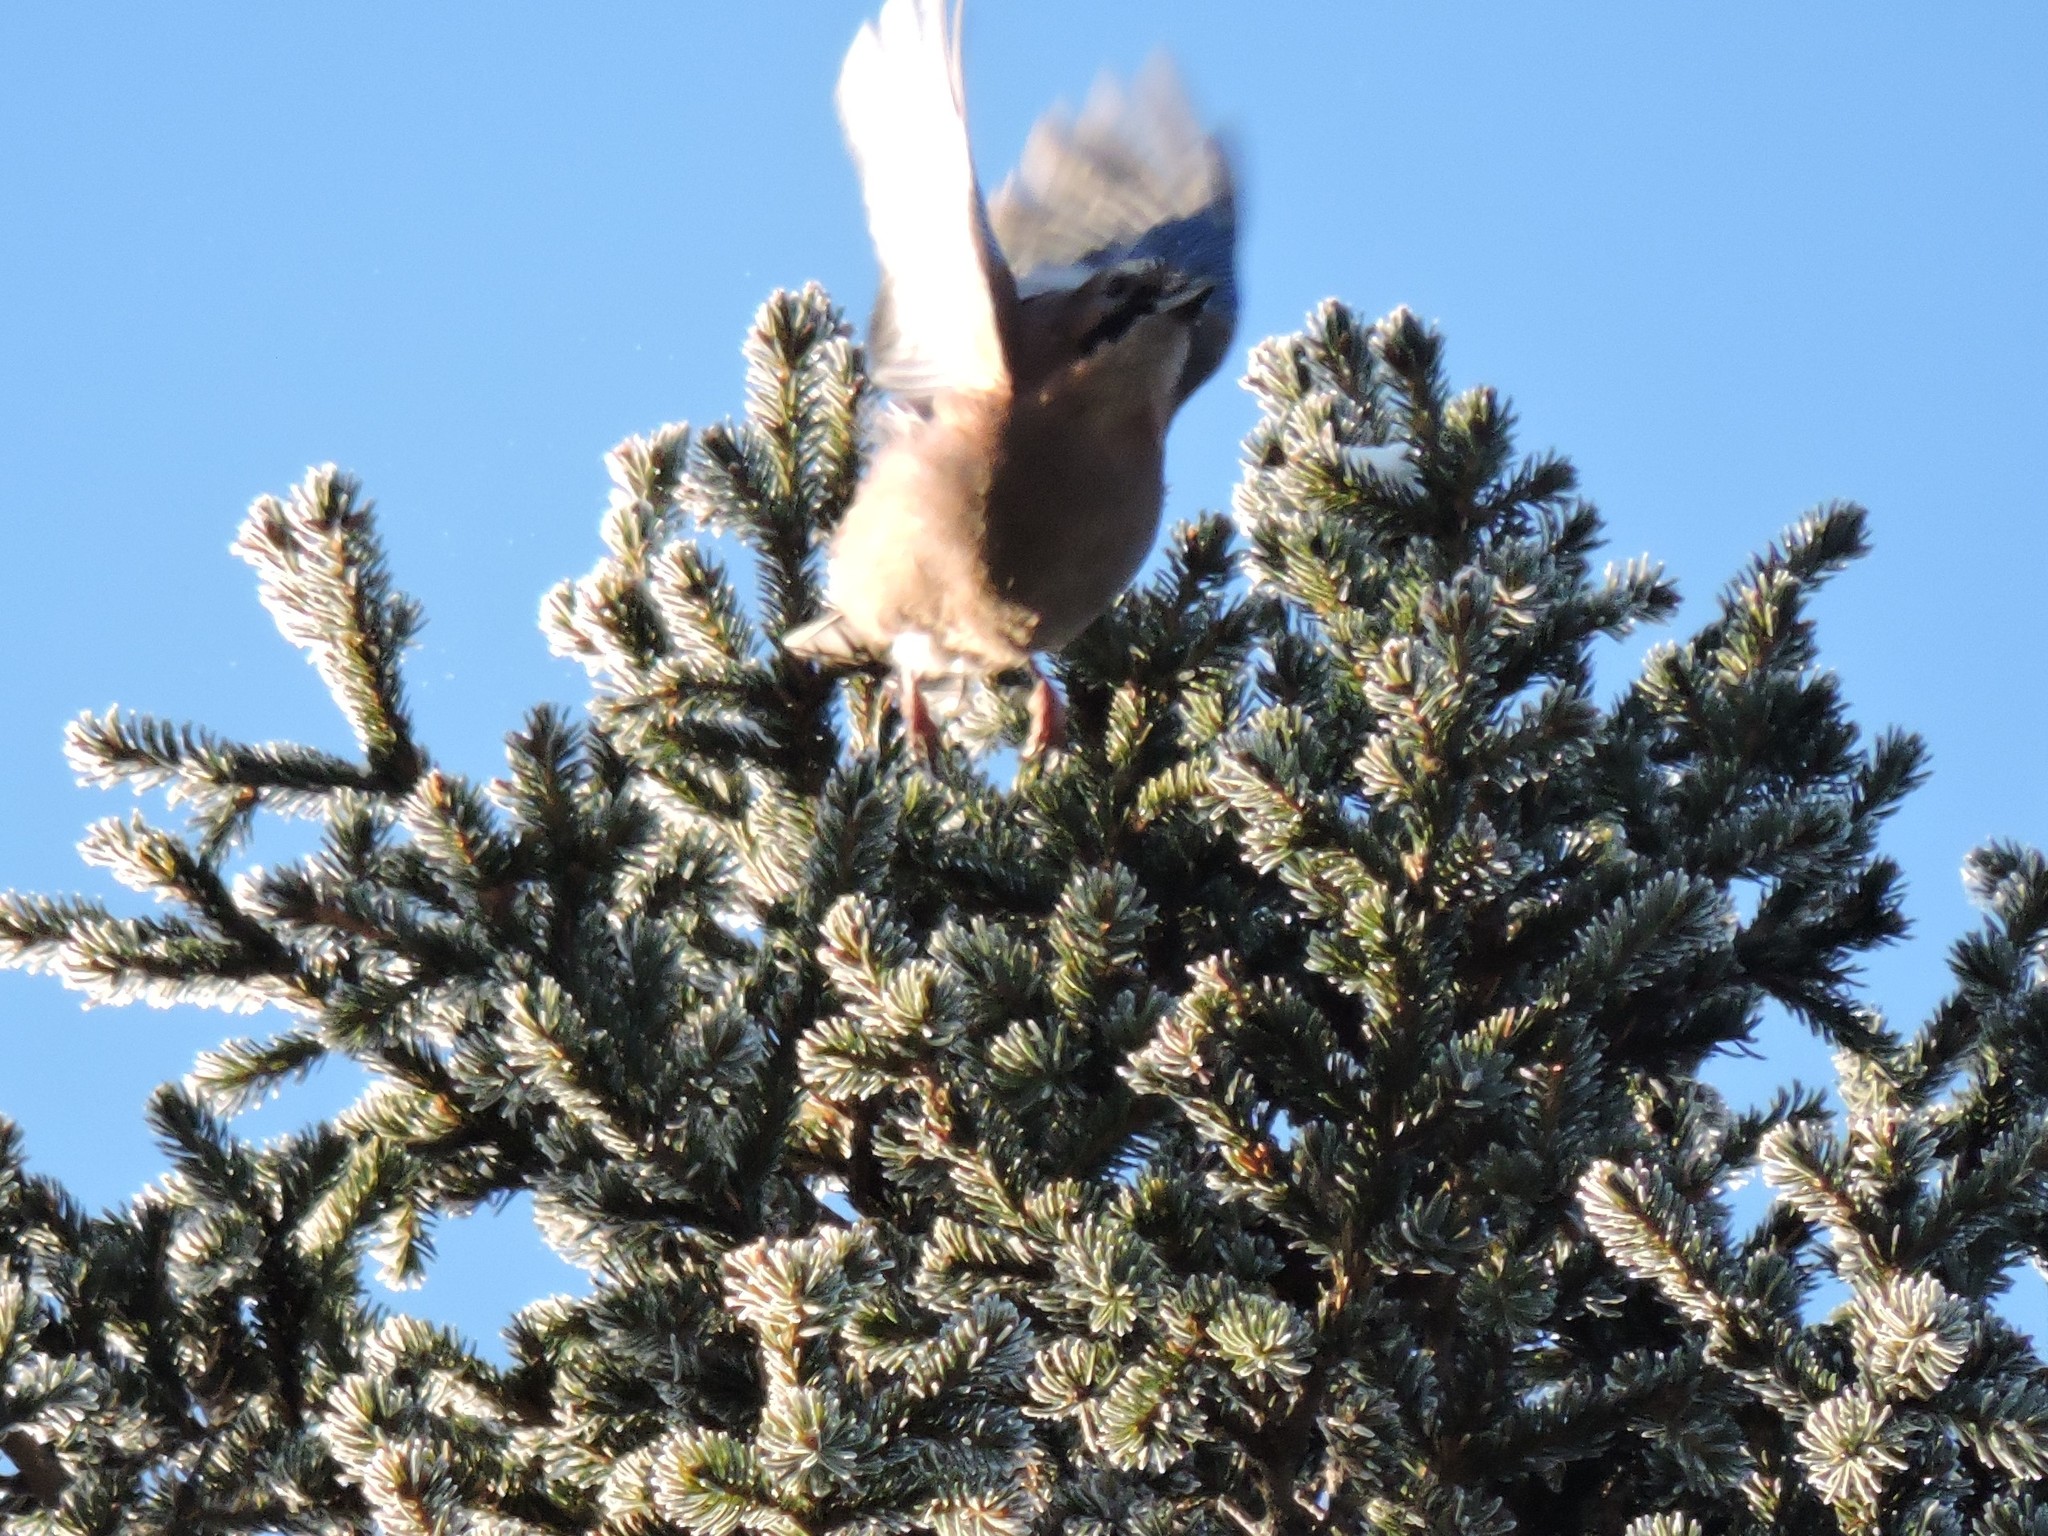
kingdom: Animalia
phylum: Chordata
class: Aves
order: Passeriformes
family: Corvidae
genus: Garrulus
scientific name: Garrulus glandarius
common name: Eurasian jay
